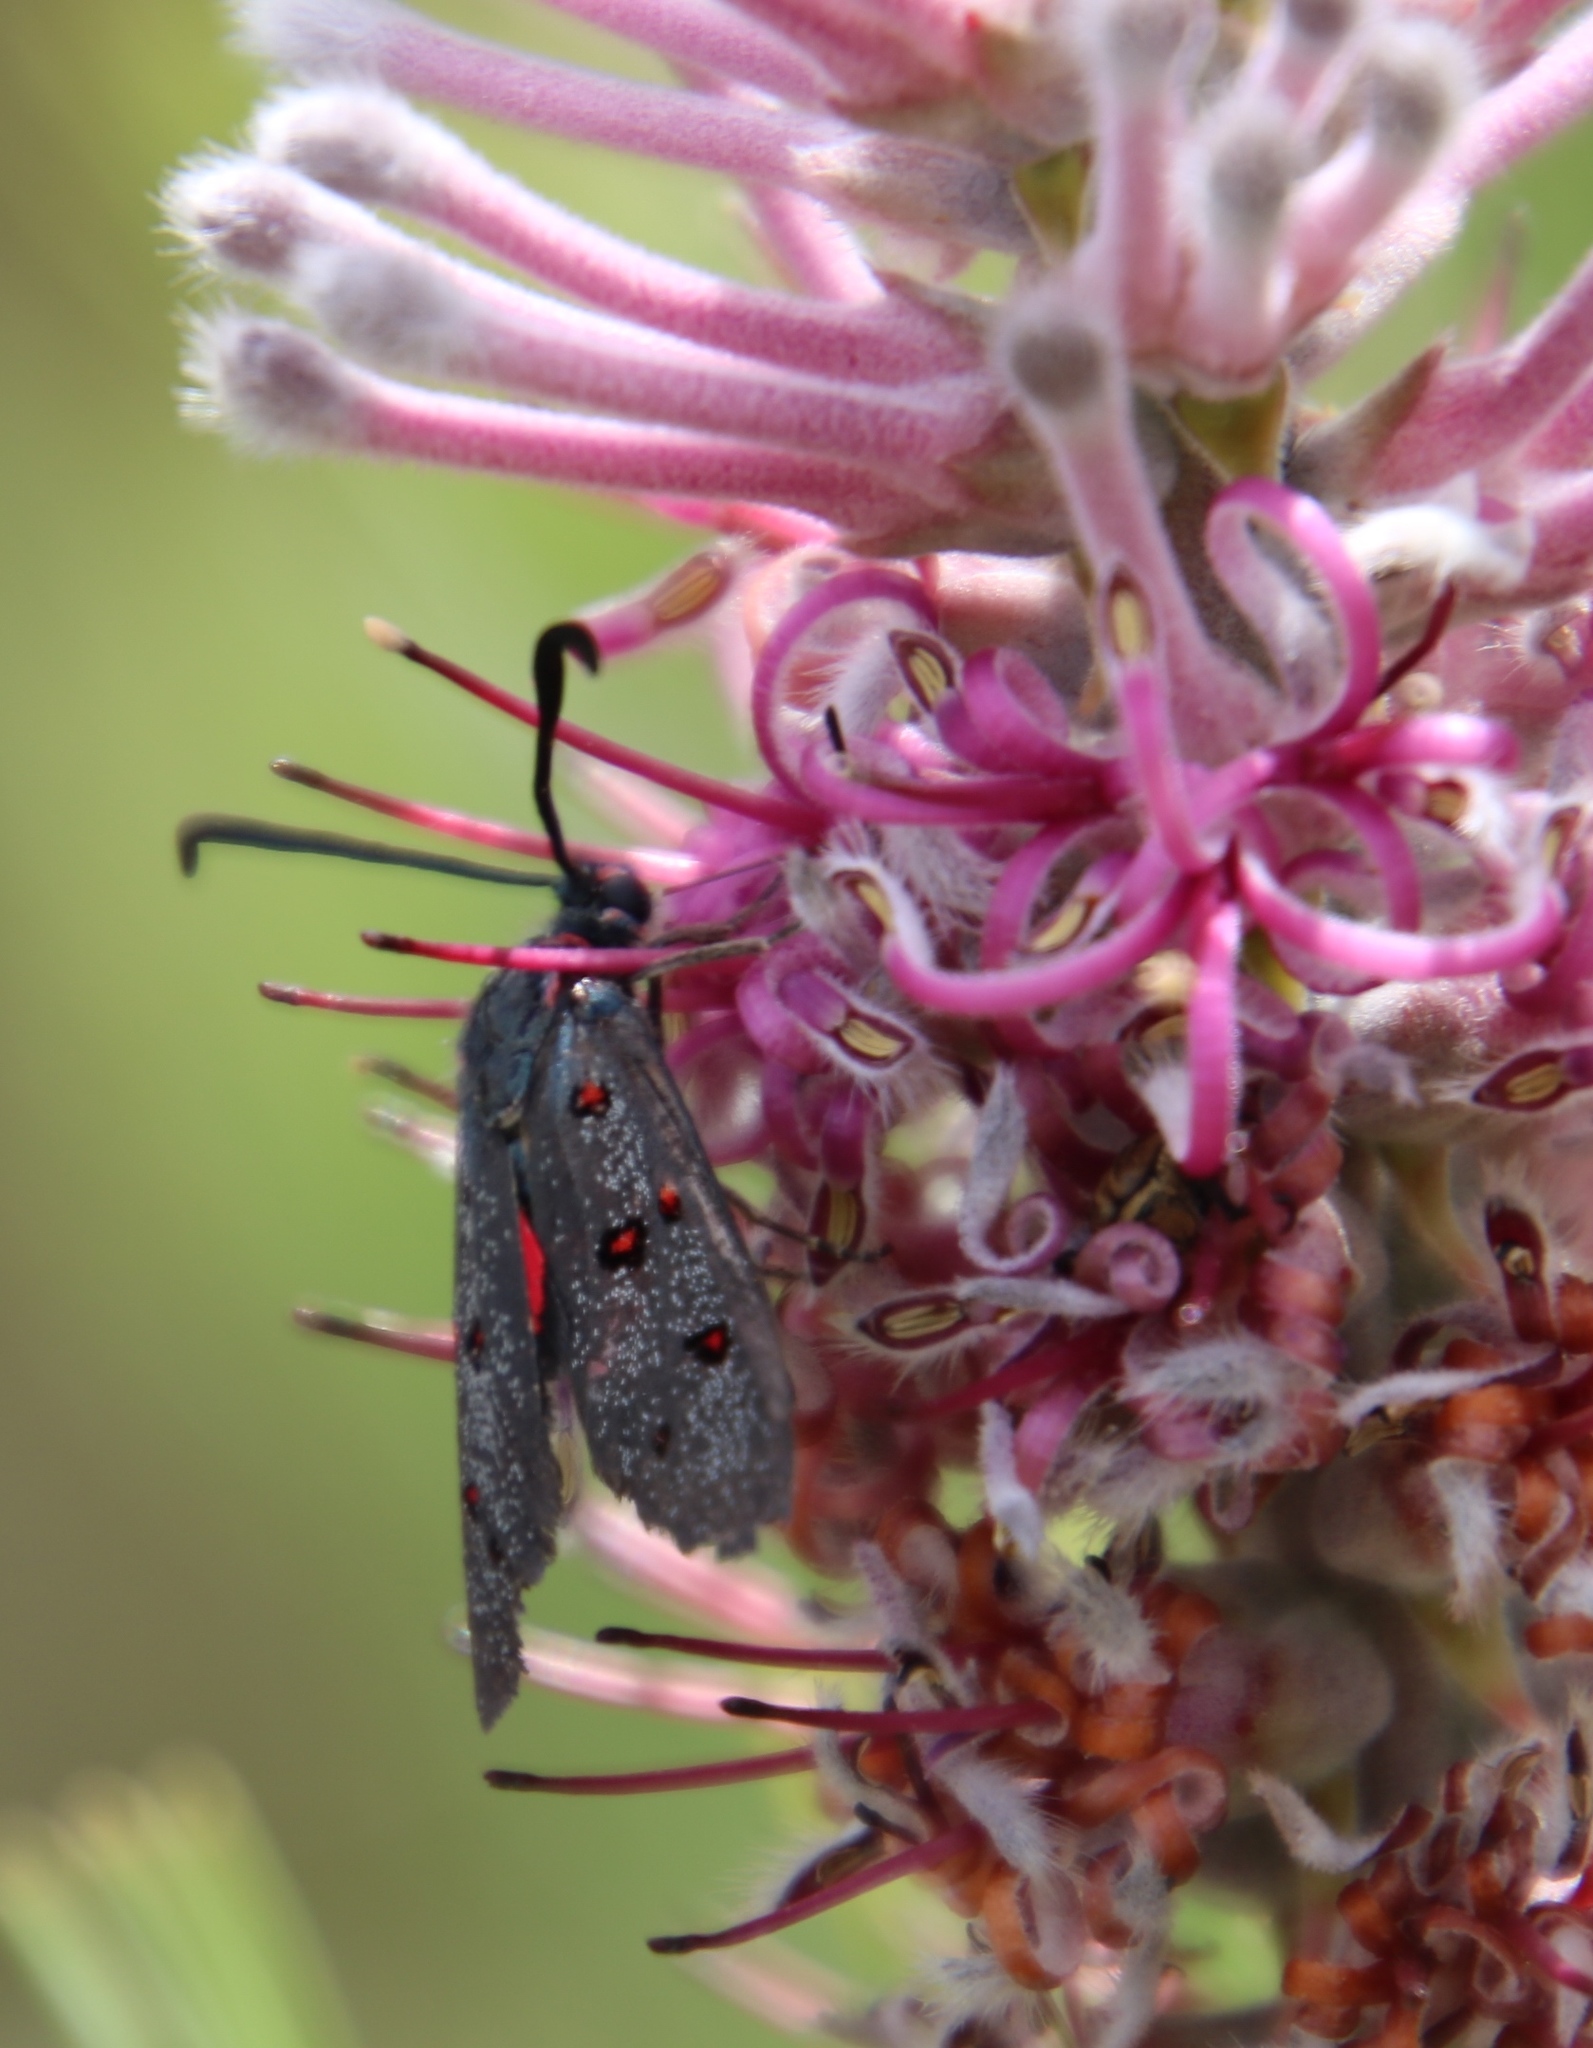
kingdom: Animalia
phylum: Arthropoda
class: Insecta
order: Lepidoptera
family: Zygaenidae
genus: Neurosymploca
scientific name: Neurosymploca caffra
